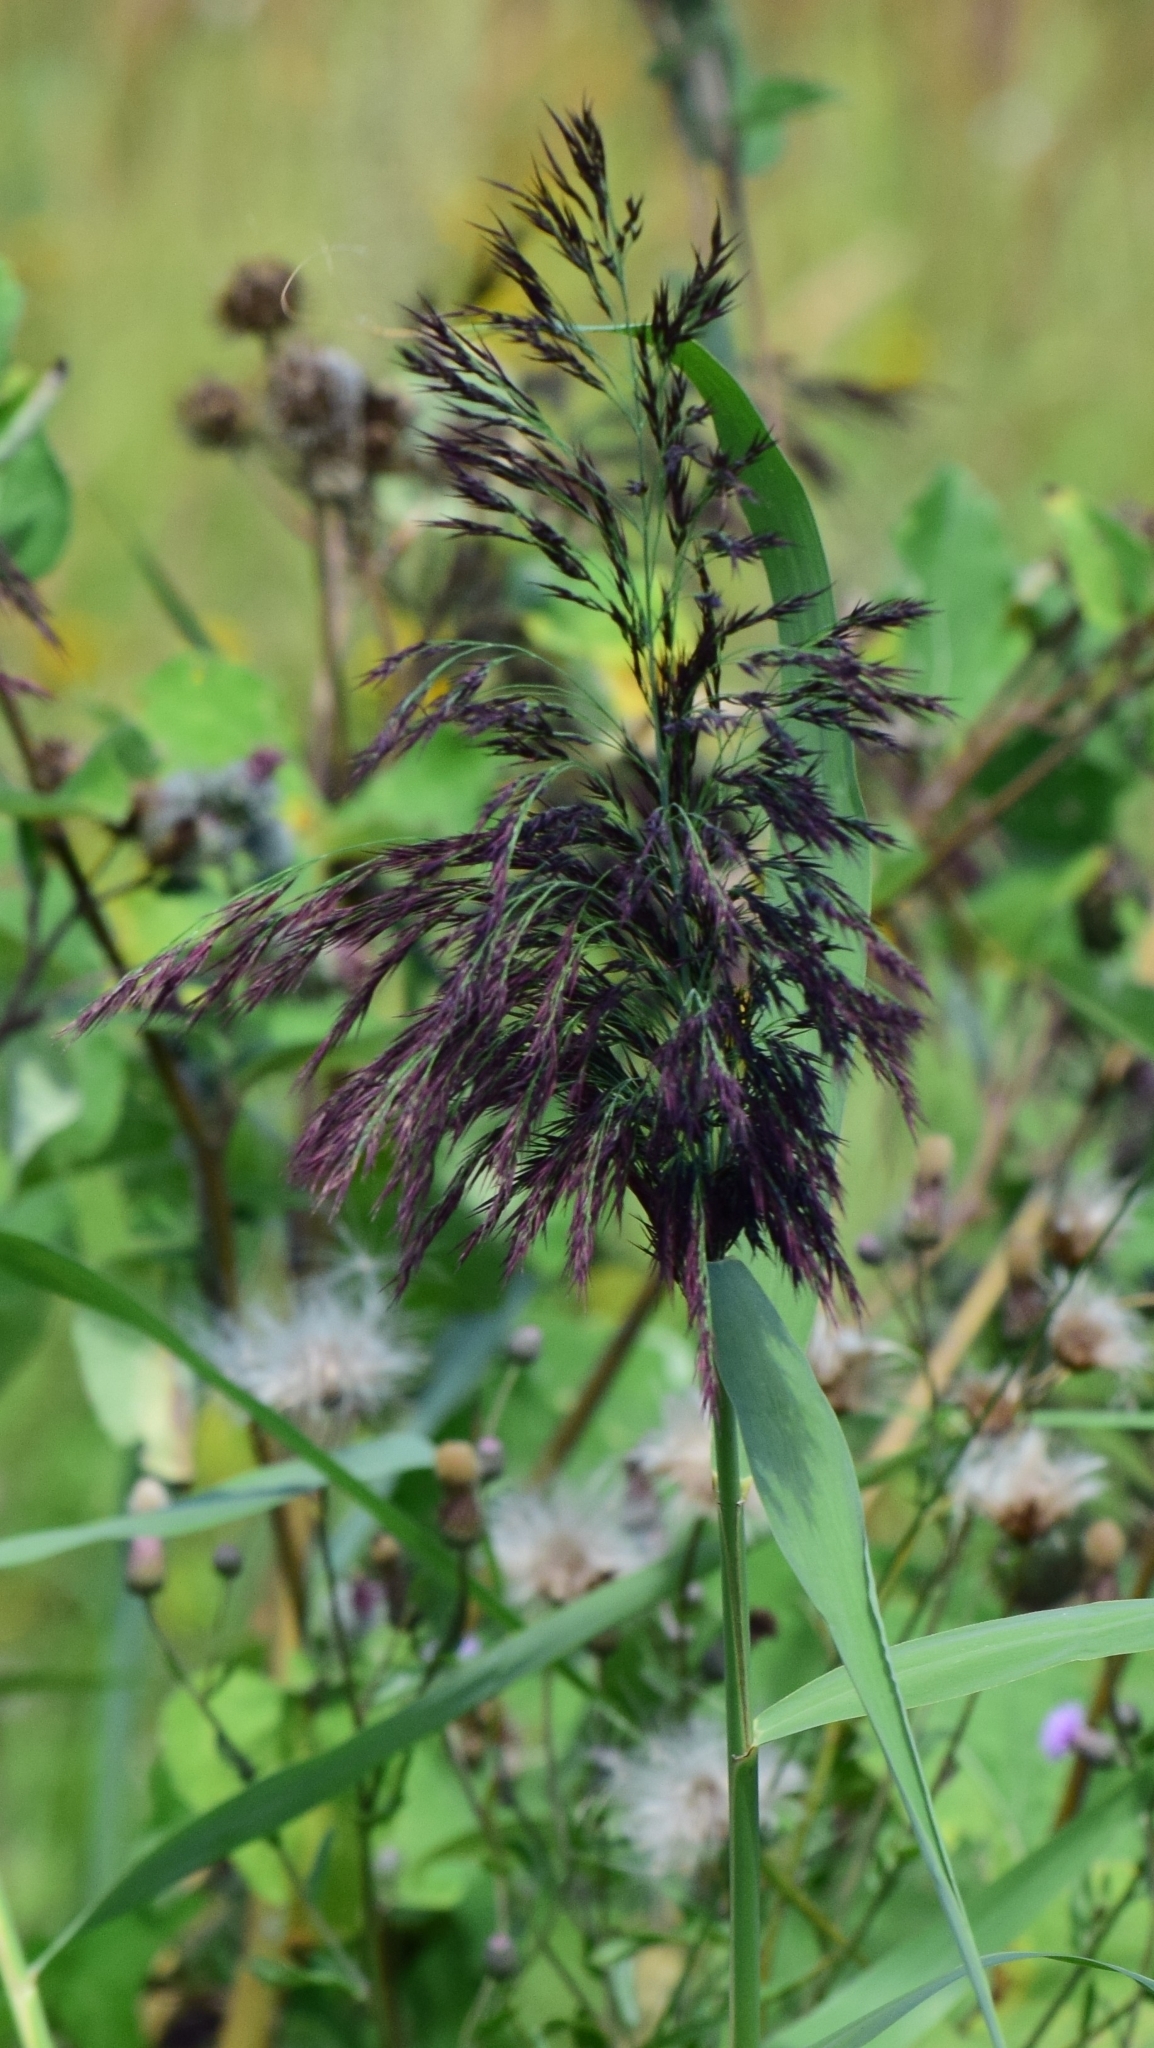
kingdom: Plantae
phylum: Tracheophyta
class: Liliopsida
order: Poales
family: Poaceae
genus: Phragmites
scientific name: Phragmites australis
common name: Common reed
